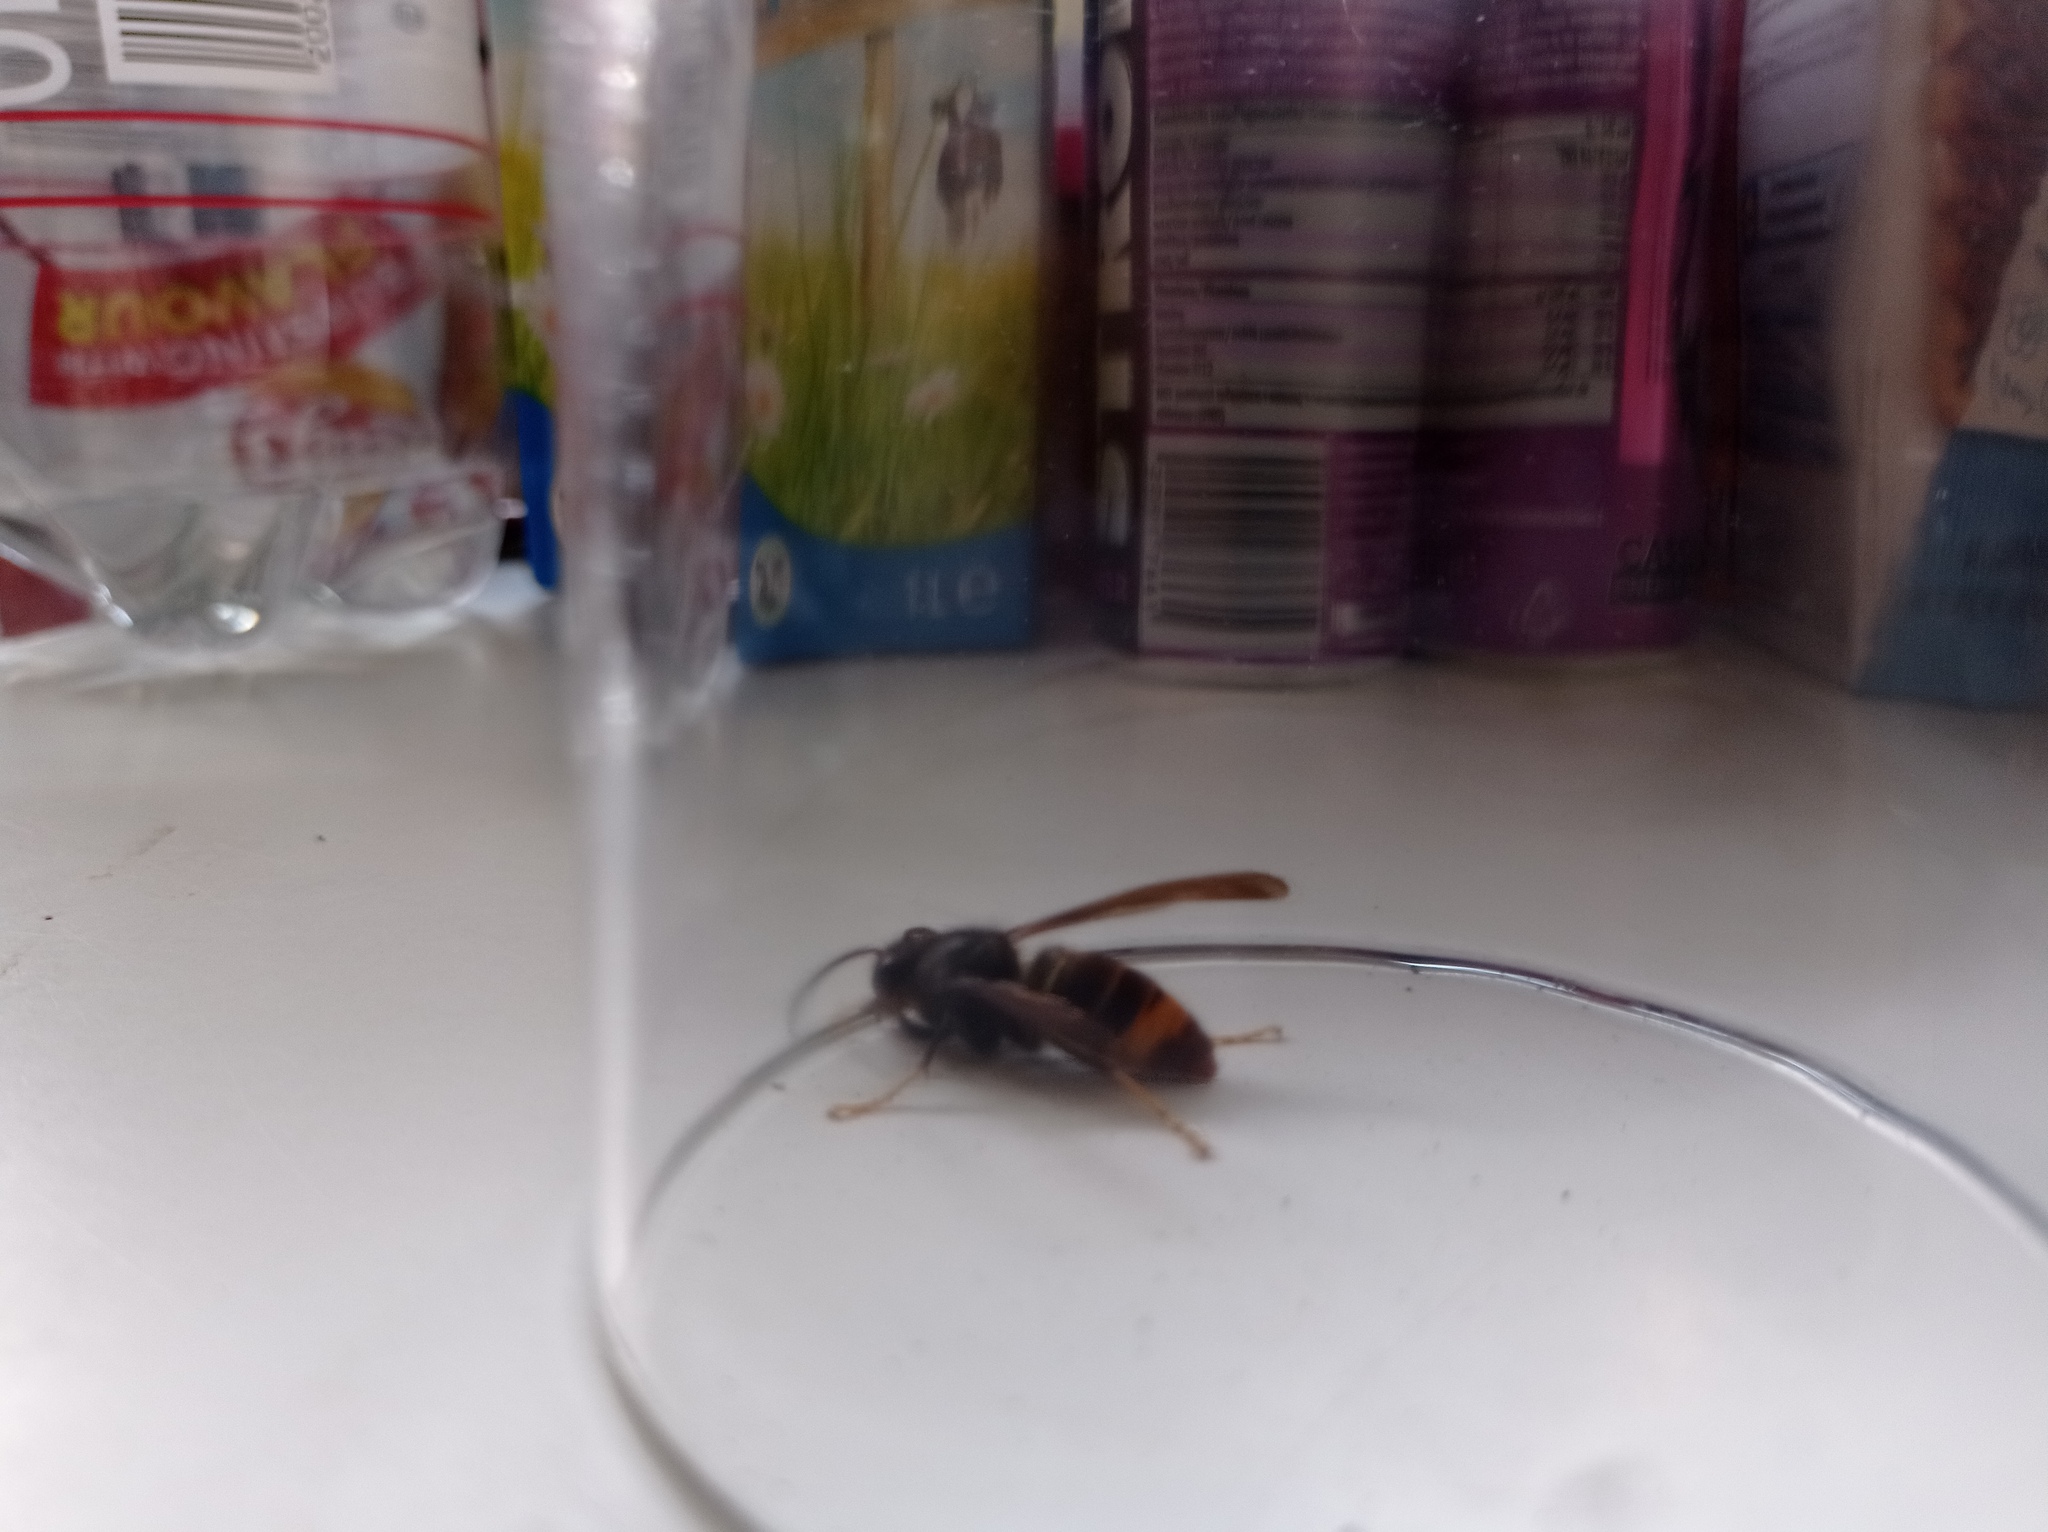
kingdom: Animalia
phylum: Arthropoda
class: Insecta
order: Hymenoptera
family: Vespidae
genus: Vespa
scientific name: Vespa velutina
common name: Asian hornet
